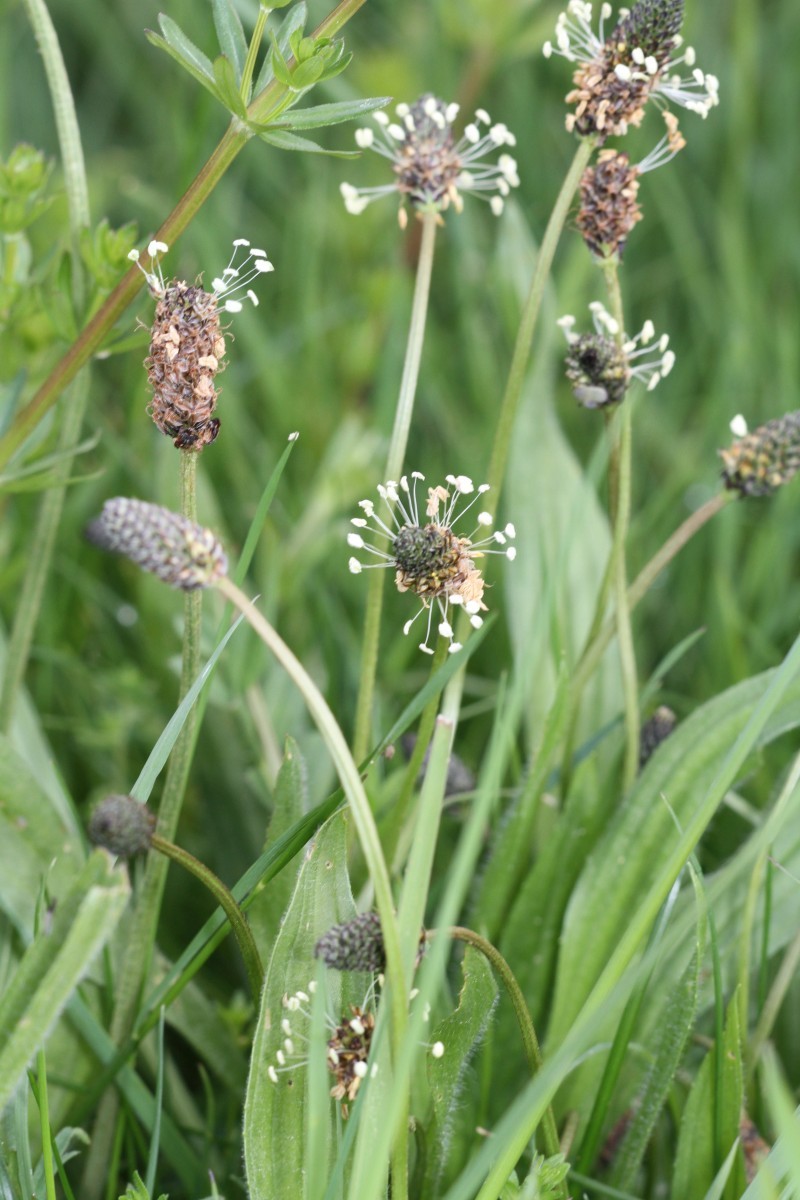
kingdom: Plantae
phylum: Tracheophyta
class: Magnoliopsida
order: Lamiales
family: Plantaginaceae
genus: Plantago
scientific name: Plantago lanceolata
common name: Ribwort plantain
